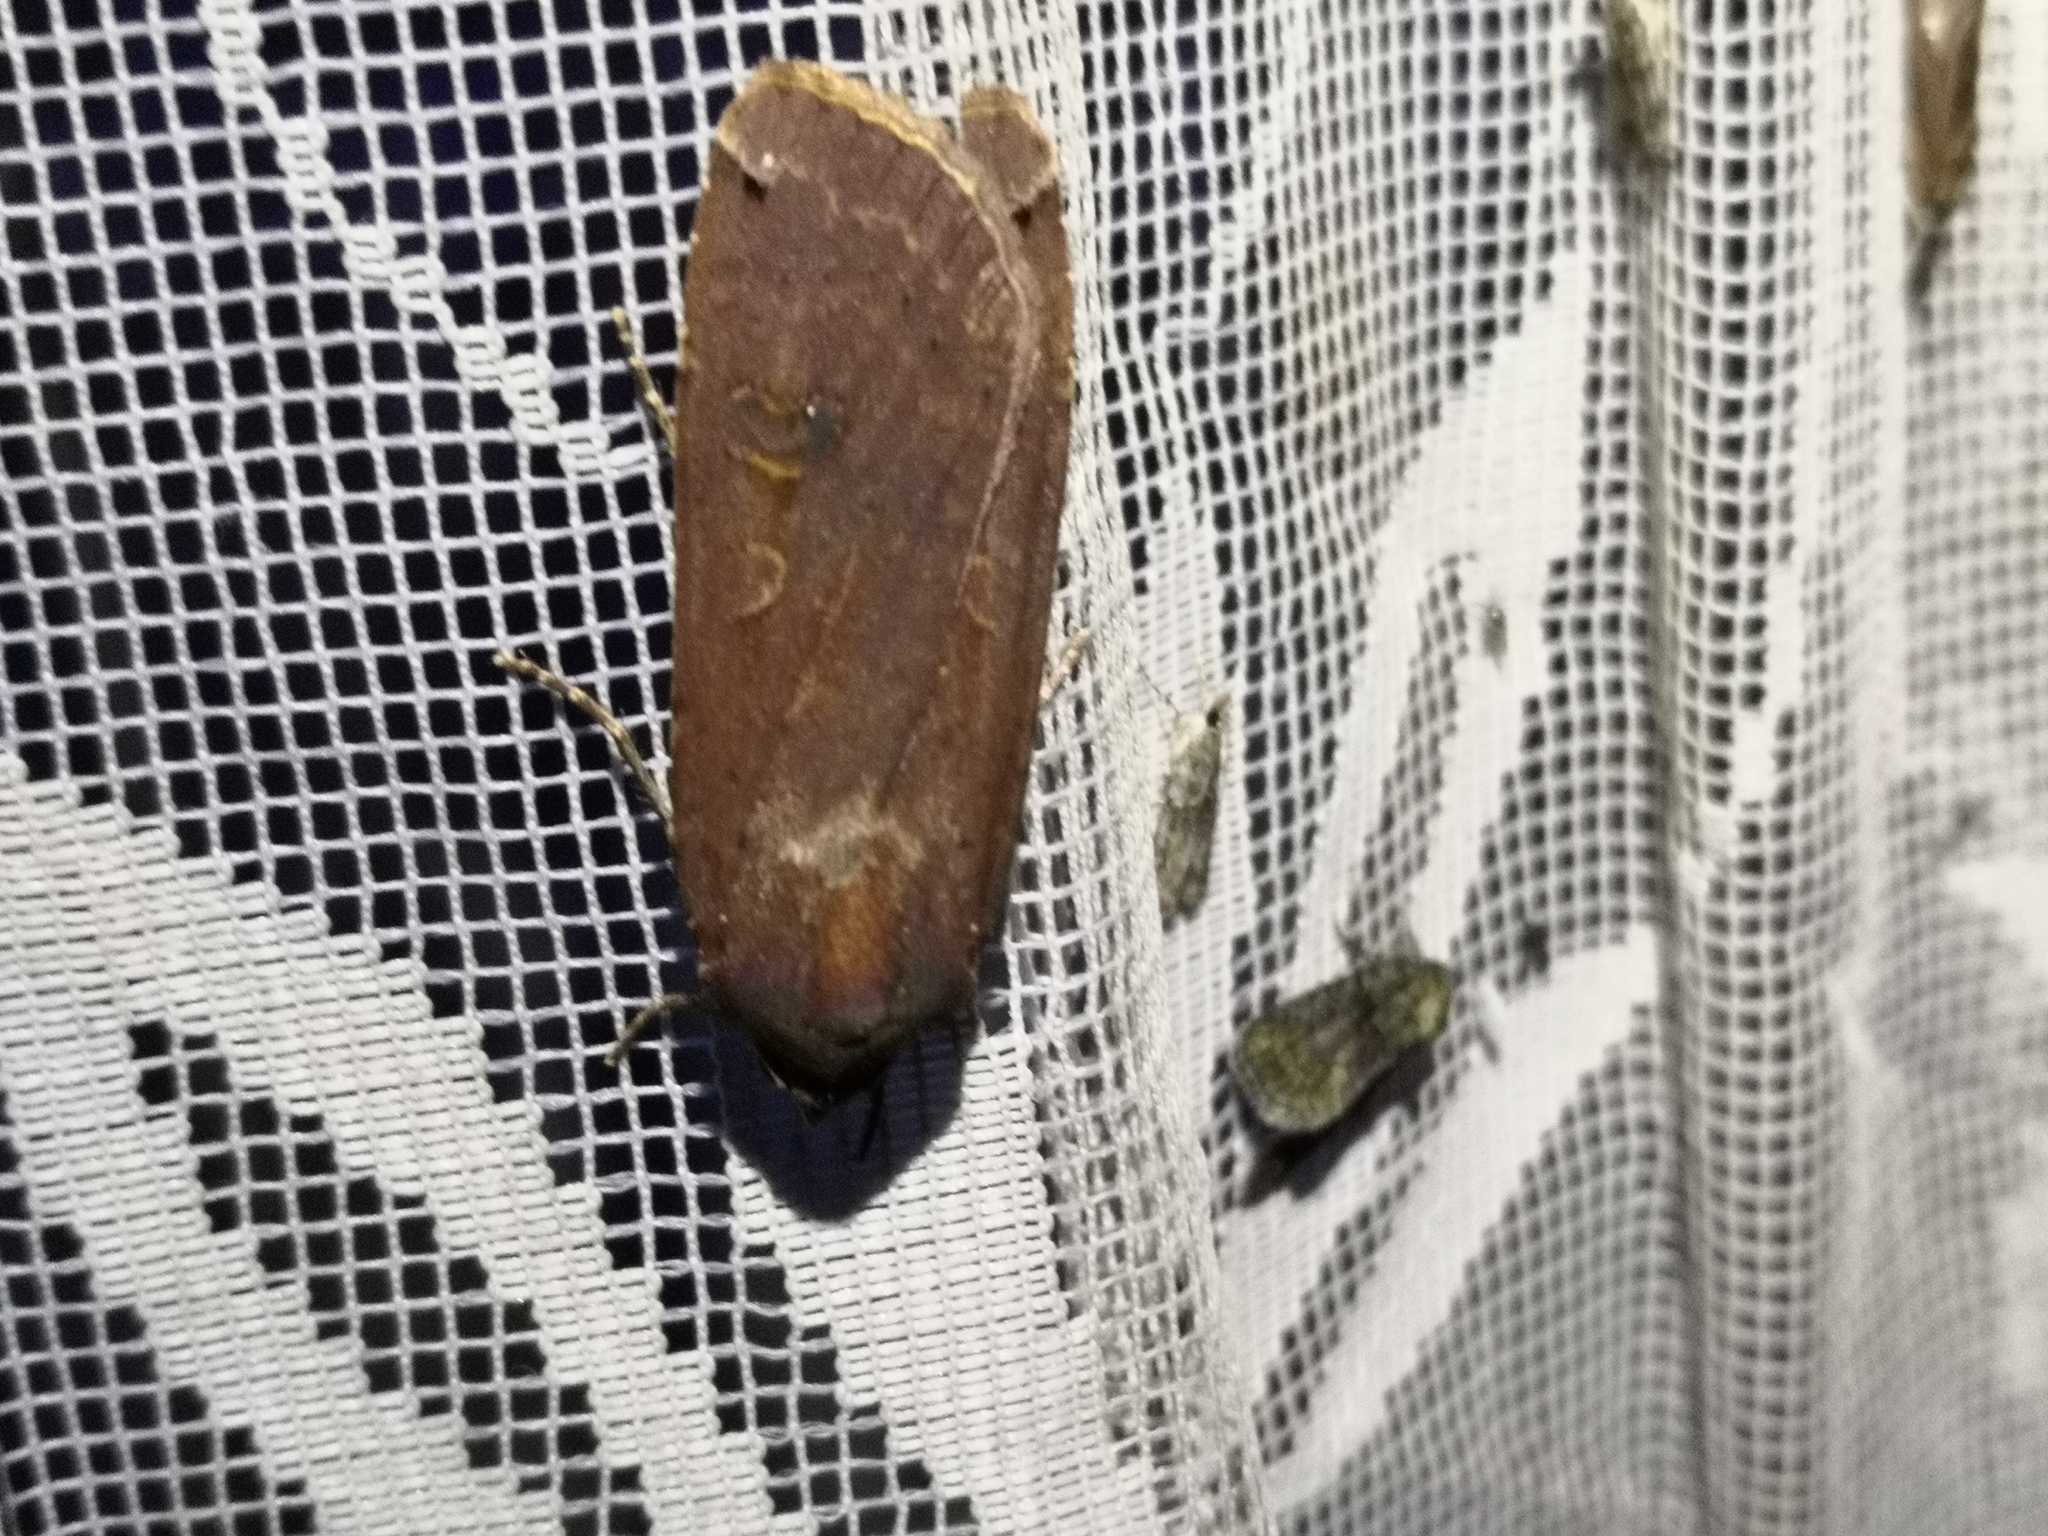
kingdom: Animalia
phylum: Arthropoda
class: Insecta
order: Lepidoptera
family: Noctuidae
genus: Noctua
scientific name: Noctua pronuba
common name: Large yellow underwing
